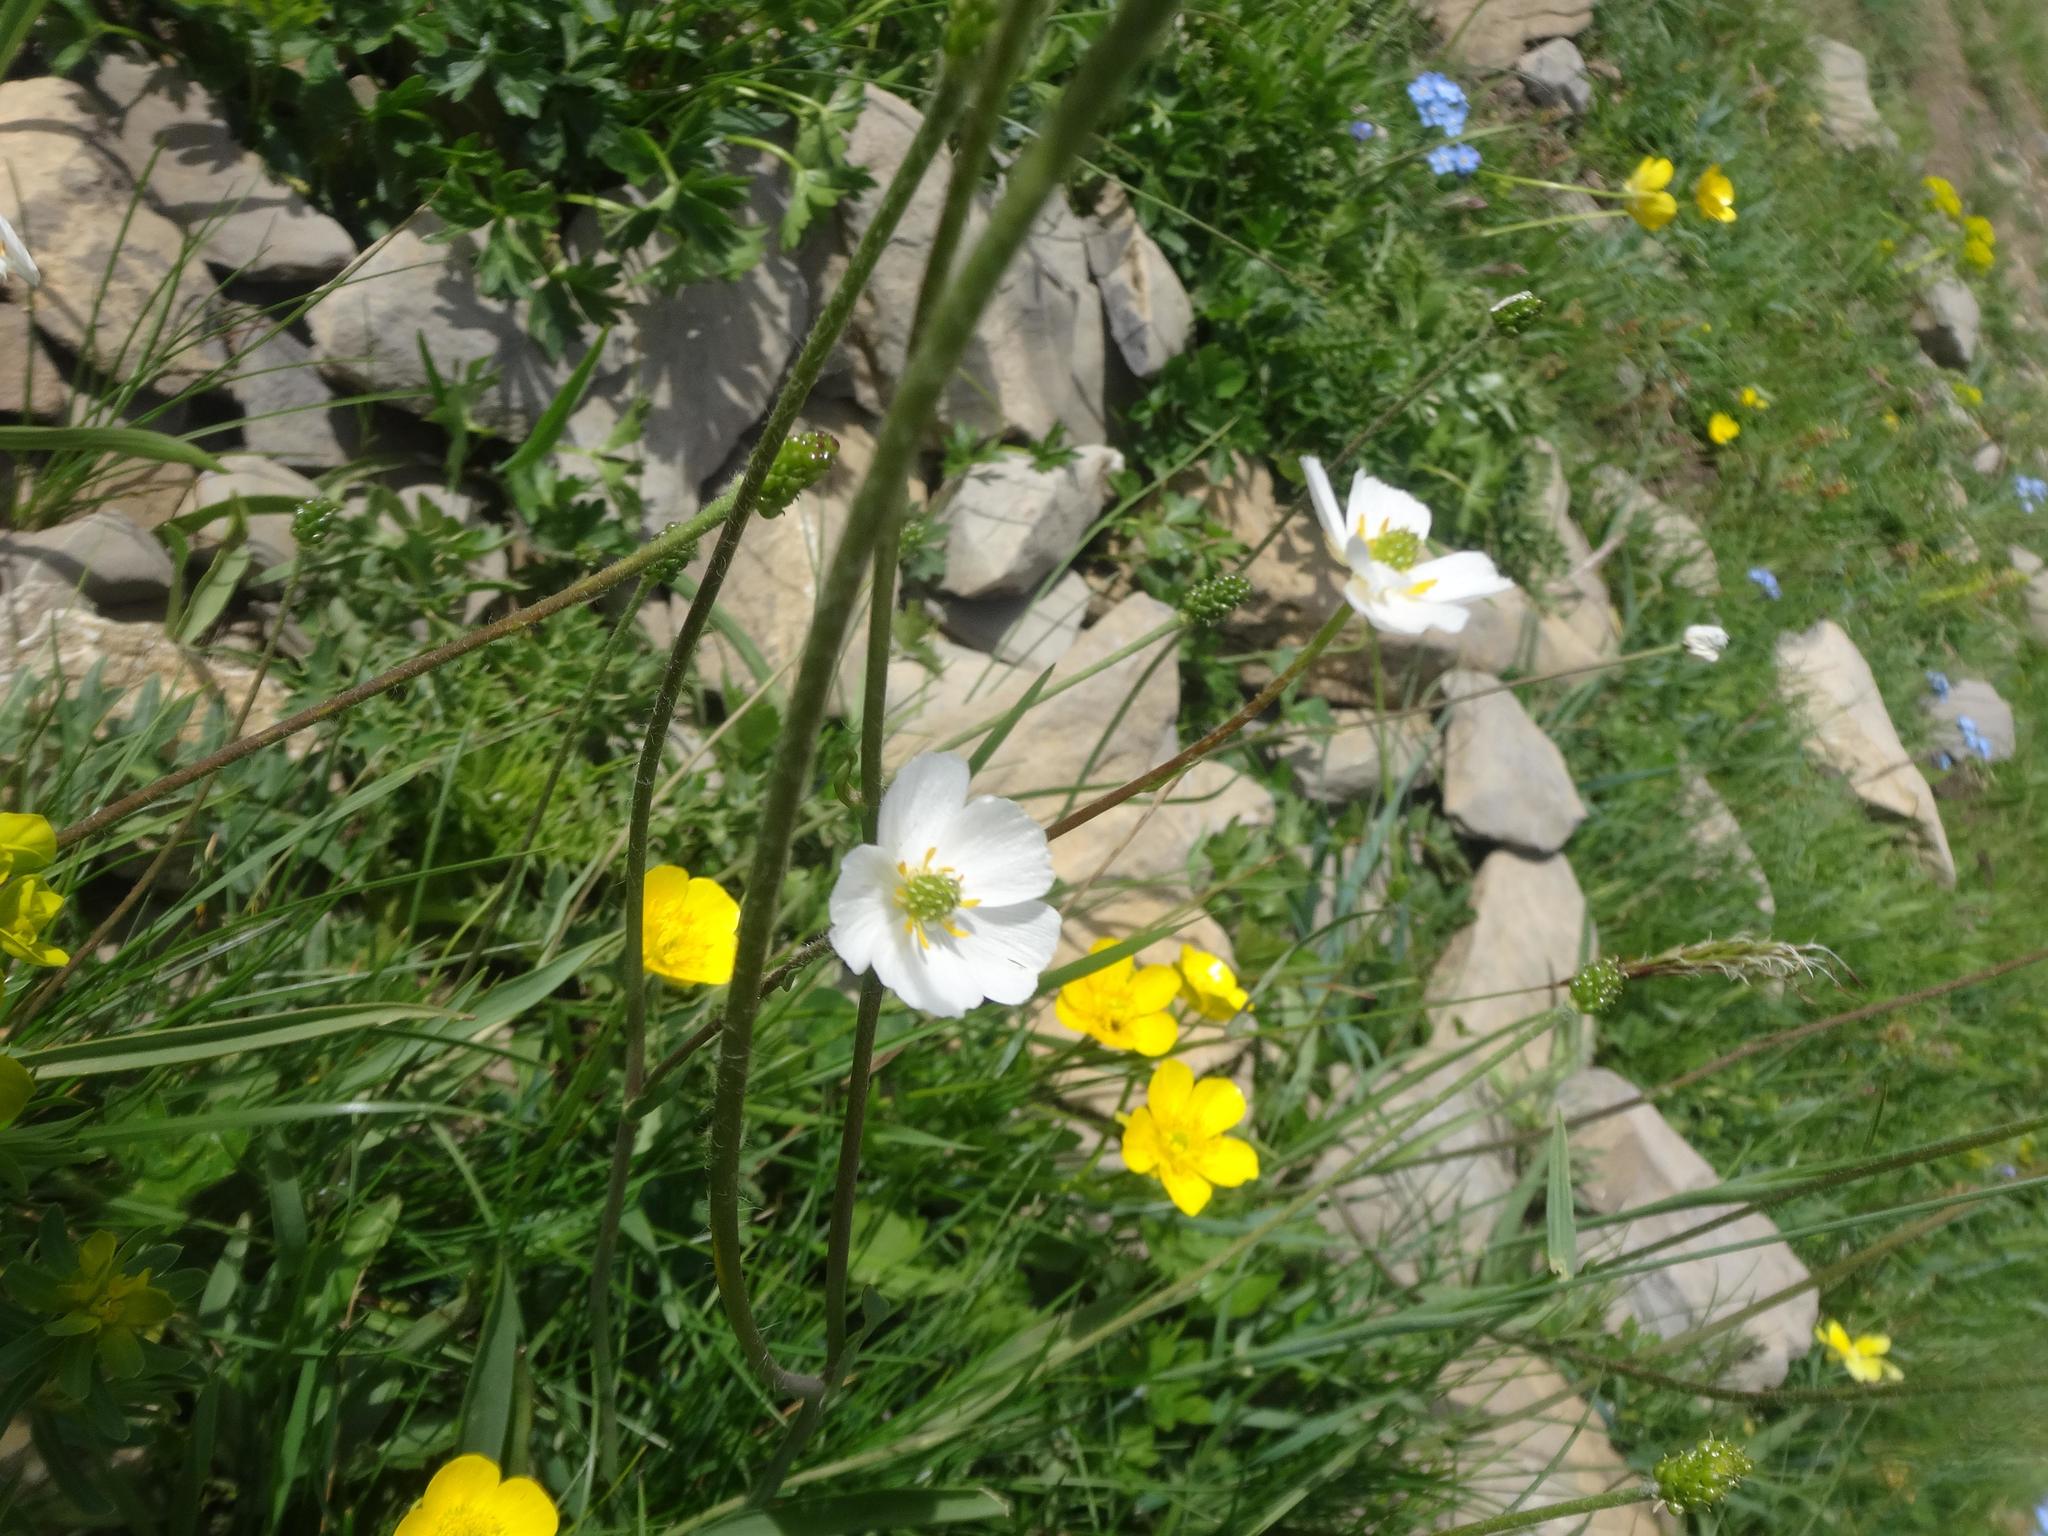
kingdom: Plantae
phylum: Tracheophyta
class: Magnoliopsida
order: Ranunculales
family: Ranunculaceae
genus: Ranunculus
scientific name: Ranunculus kuepferi
